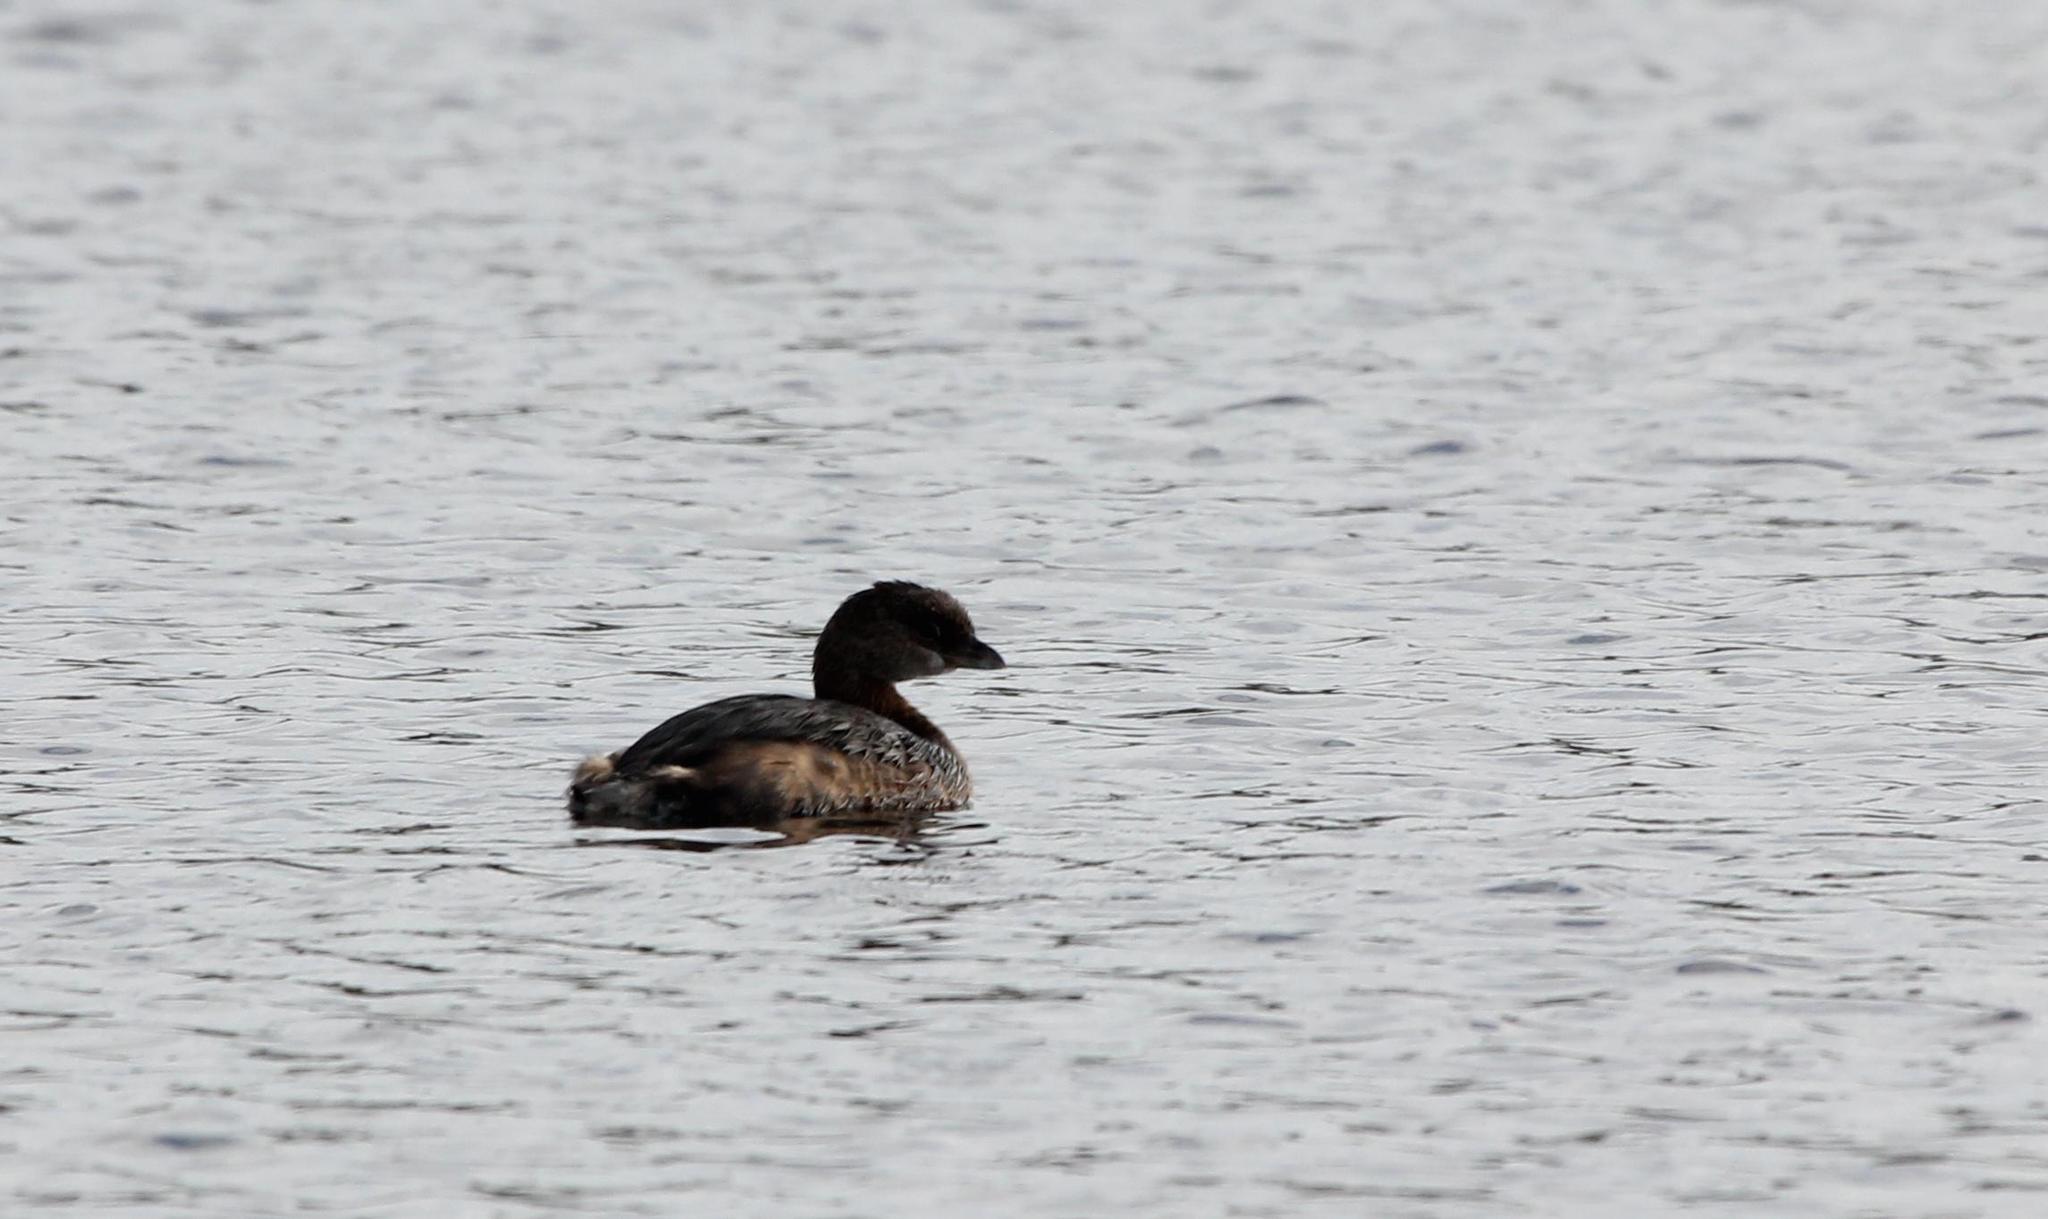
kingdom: Animalia
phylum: Chordata
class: Aves
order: Podicipediformes
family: Podicipedidae
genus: Podilymbus
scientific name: Podilymbus podiceps
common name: Pied-billed grebe
